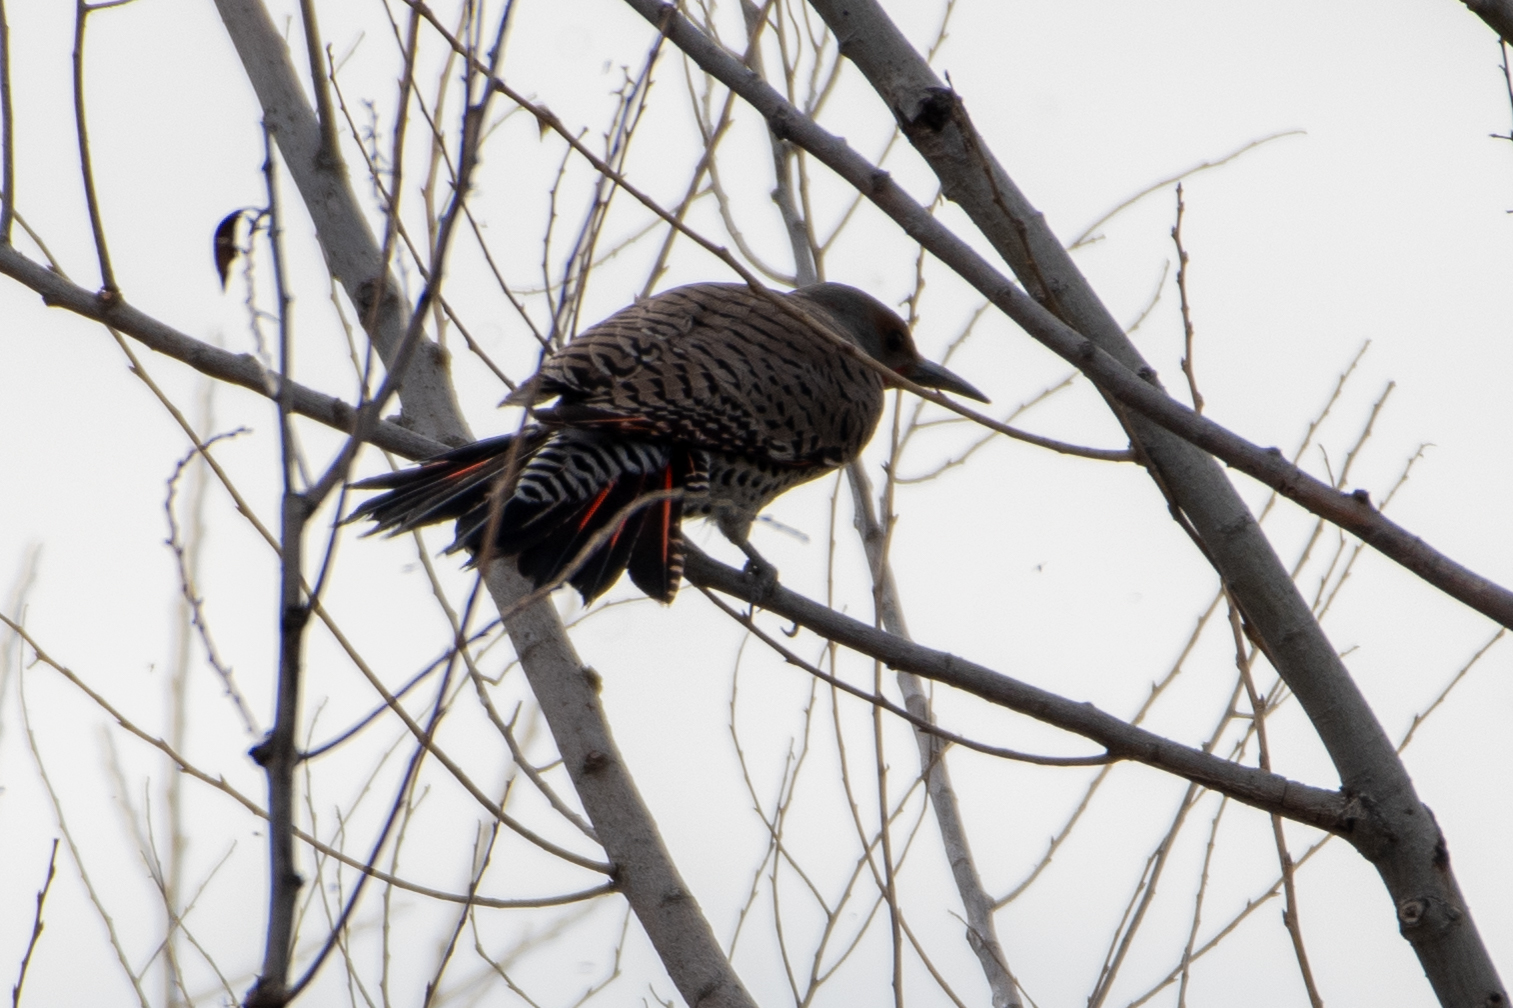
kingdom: Animalia
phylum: Chordata
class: Aves
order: Piciformes
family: Picidae
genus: Colaptes
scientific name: Colaptes auratus
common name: Northern flicker
